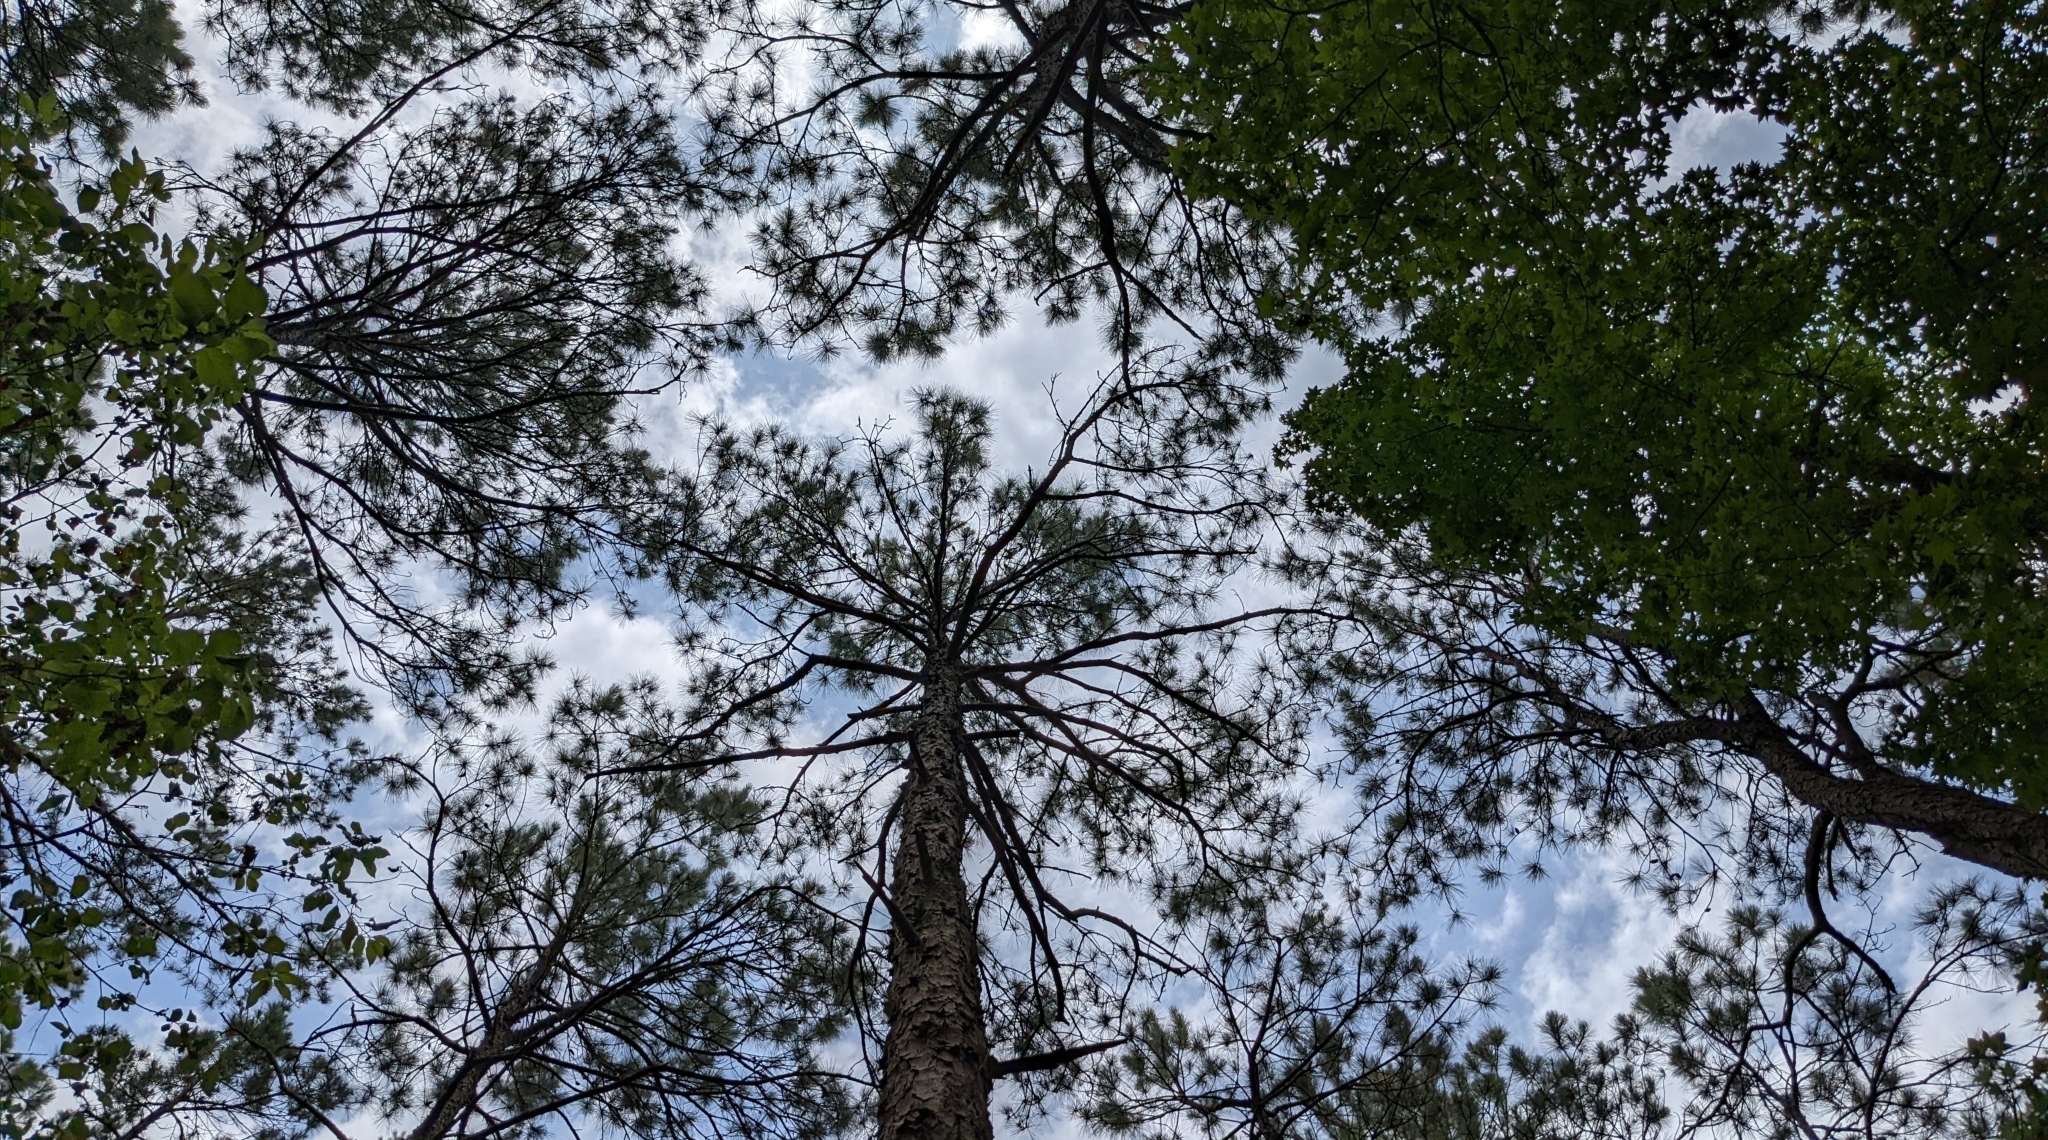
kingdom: Plantae
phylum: Tracheophyta
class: Pinopsida
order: Pinales
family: Pinaceae
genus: Pinus
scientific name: Pinus taeda
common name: Loblolly pine
